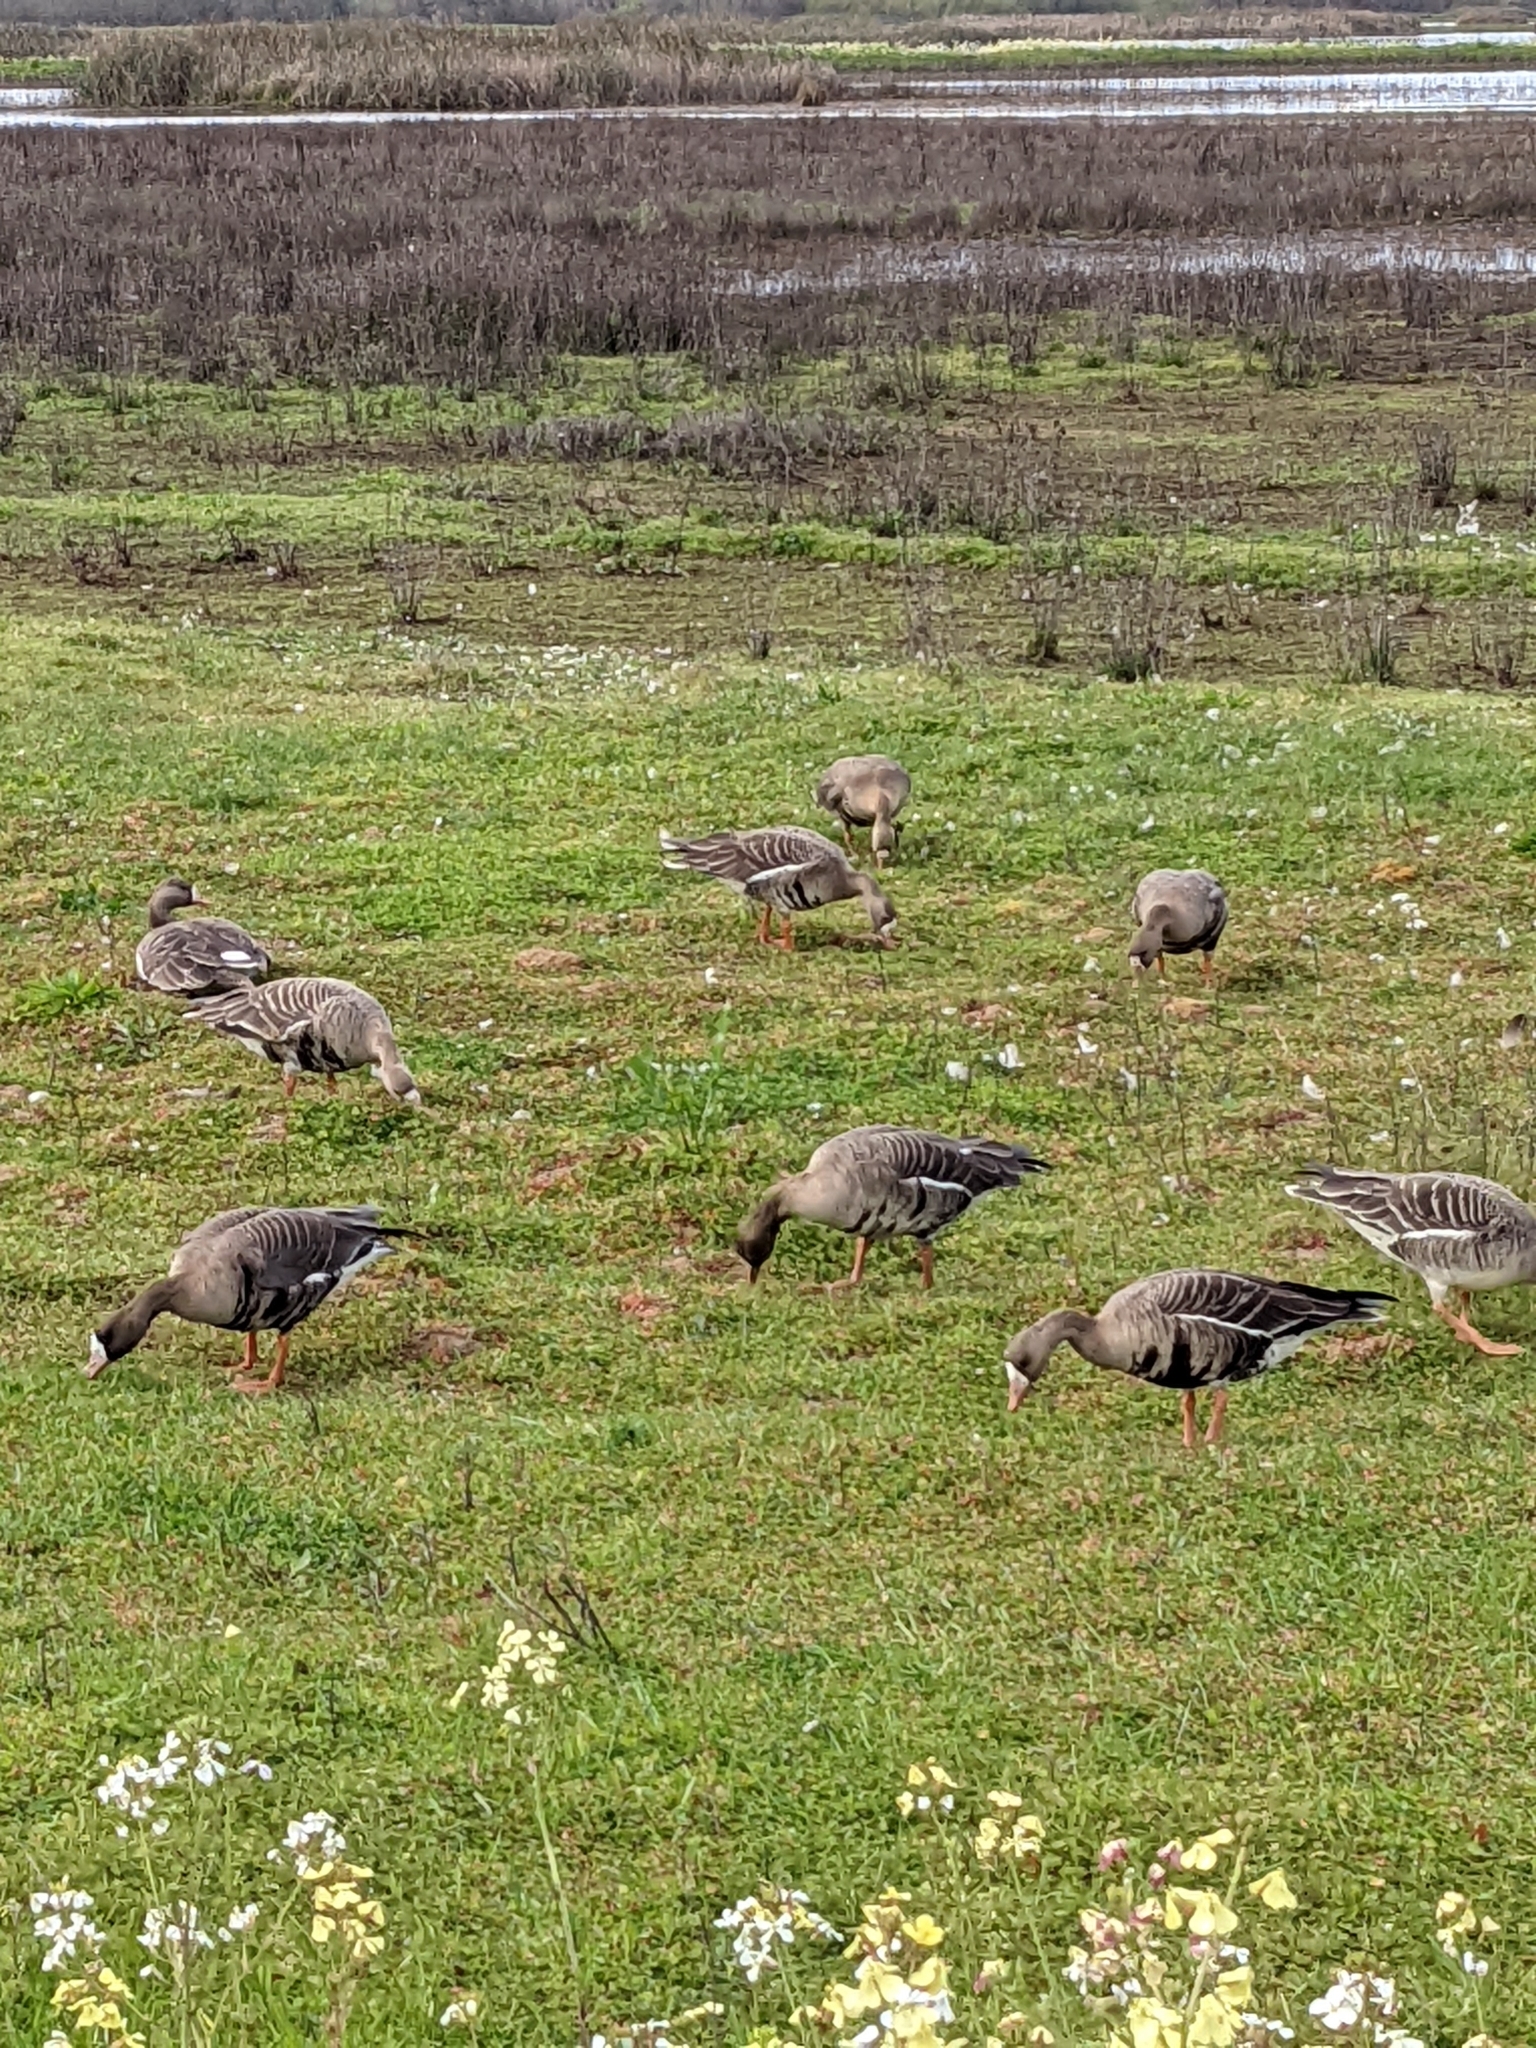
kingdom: Animalia
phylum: Chordata
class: Aves
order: Anseriformes
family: Anatidae
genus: Branta
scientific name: Branta canadensis
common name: Canada goose
